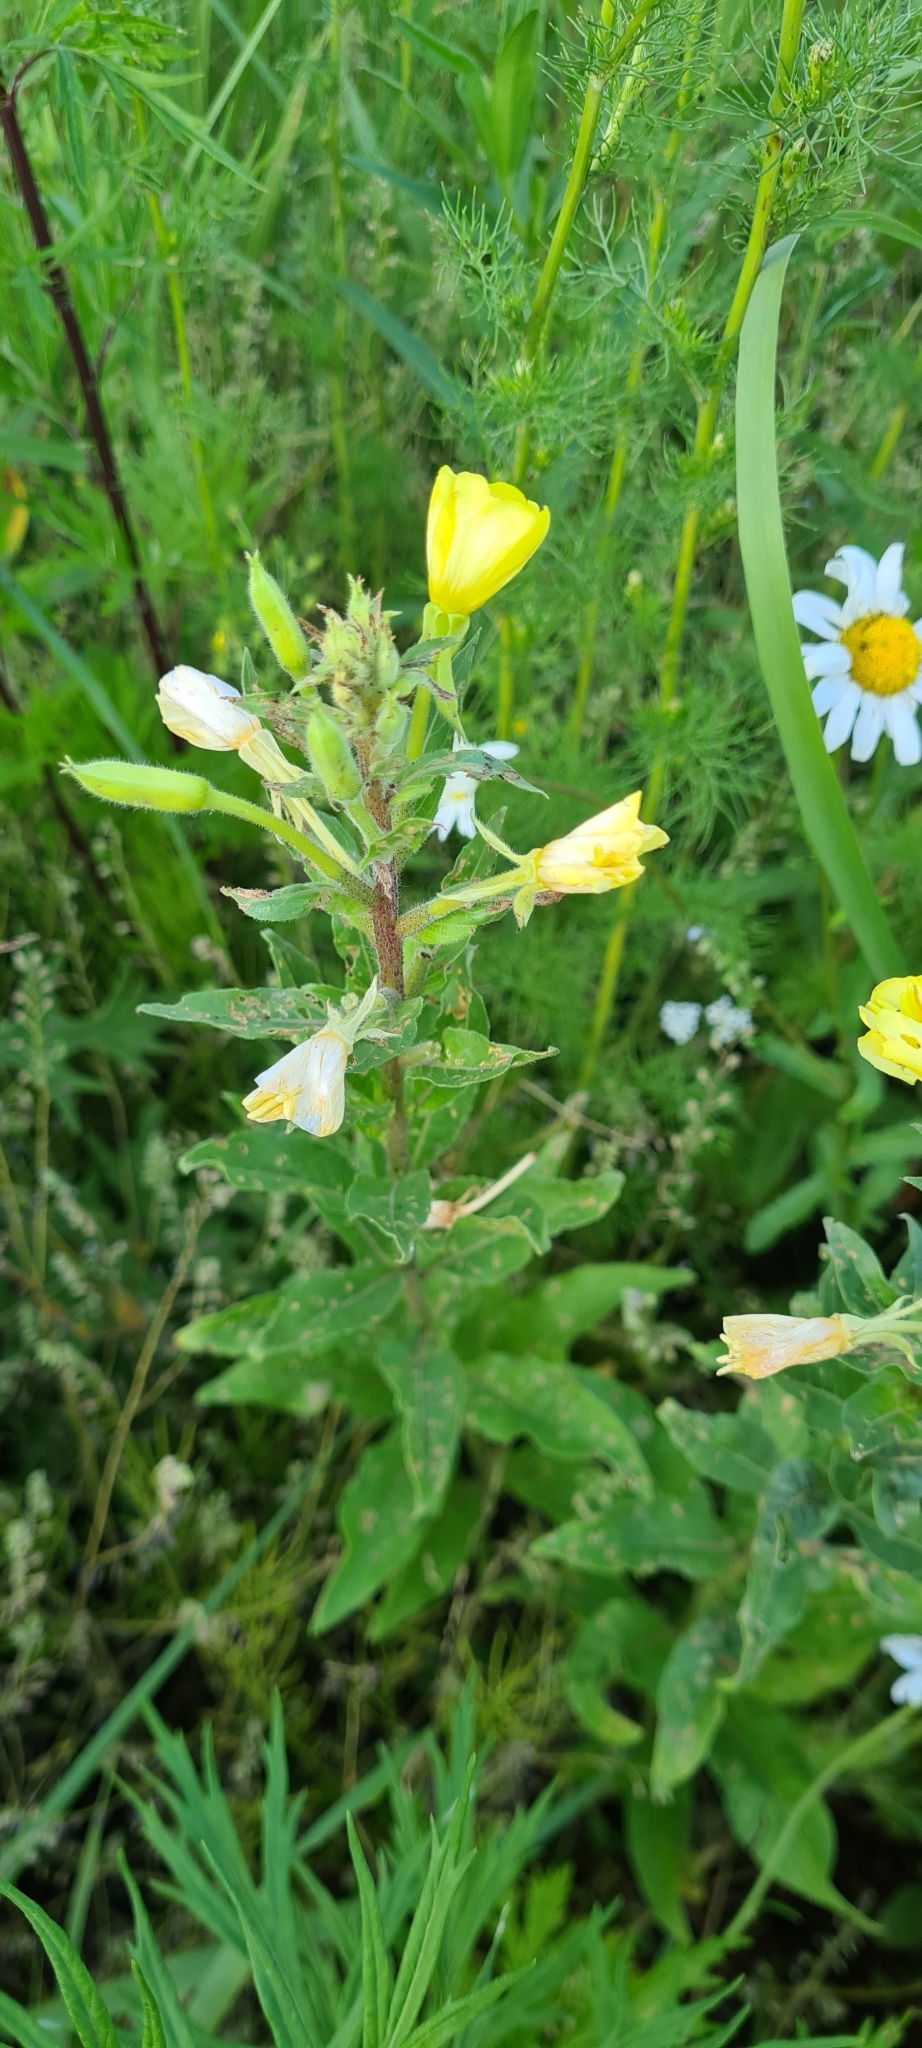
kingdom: Plantae
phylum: Tracheophyta
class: Magnoliopsida
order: Myrtales
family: Onagraceae
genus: Oenothera
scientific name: Oenothera rubricaulis
